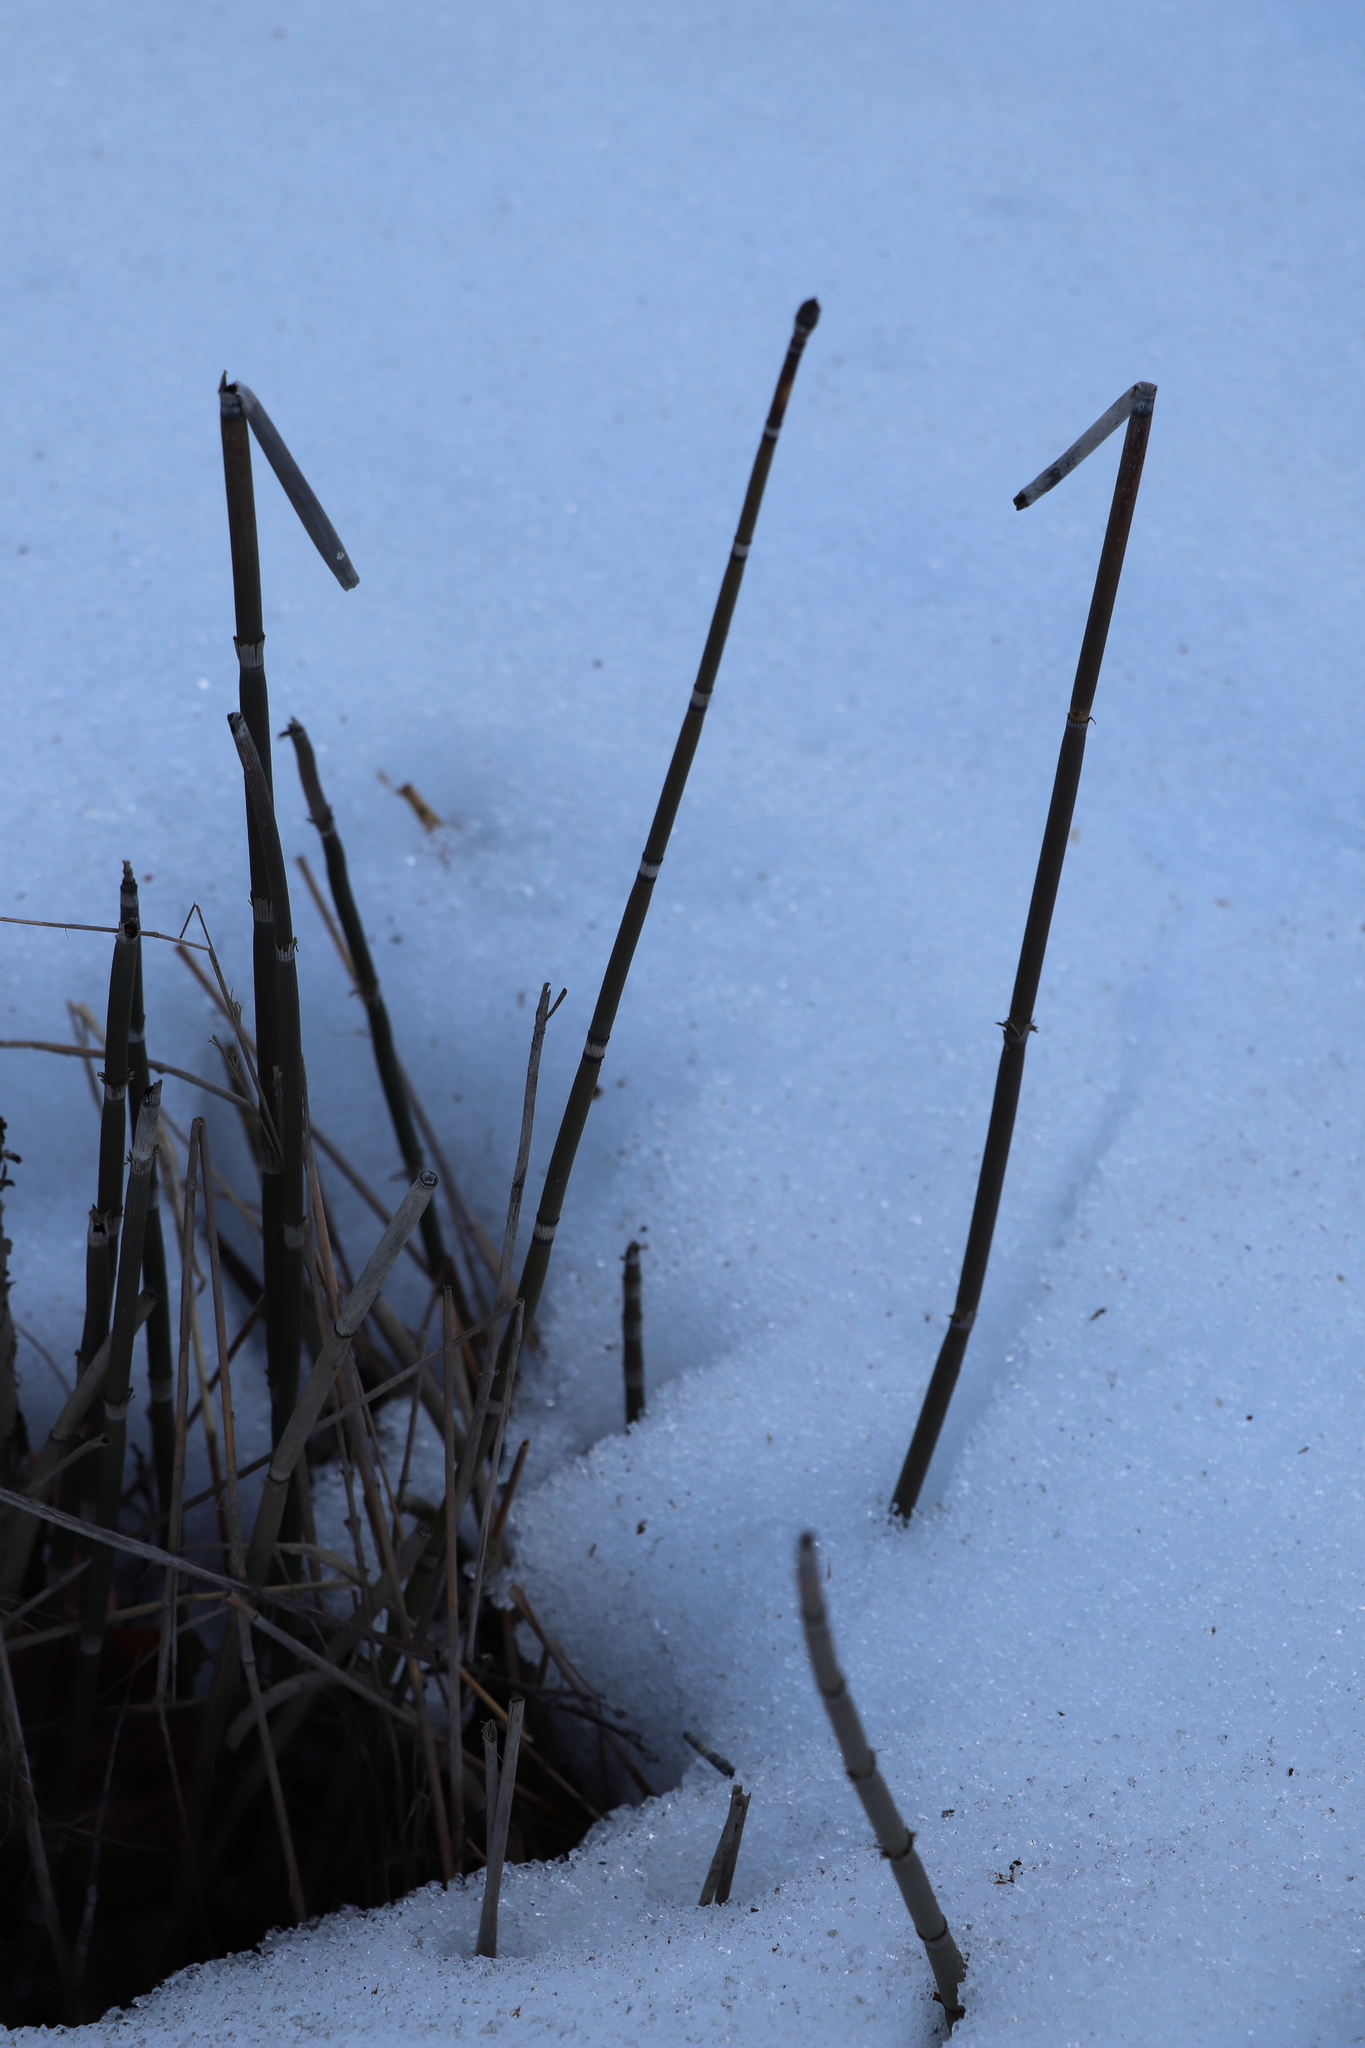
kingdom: Plantae
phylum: Tracheophyta
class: Polypodiopsida
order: Equisetales
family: Equisetaceae
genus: Equisetum
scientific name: Equisetum hyemale
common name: Rough horsetail
